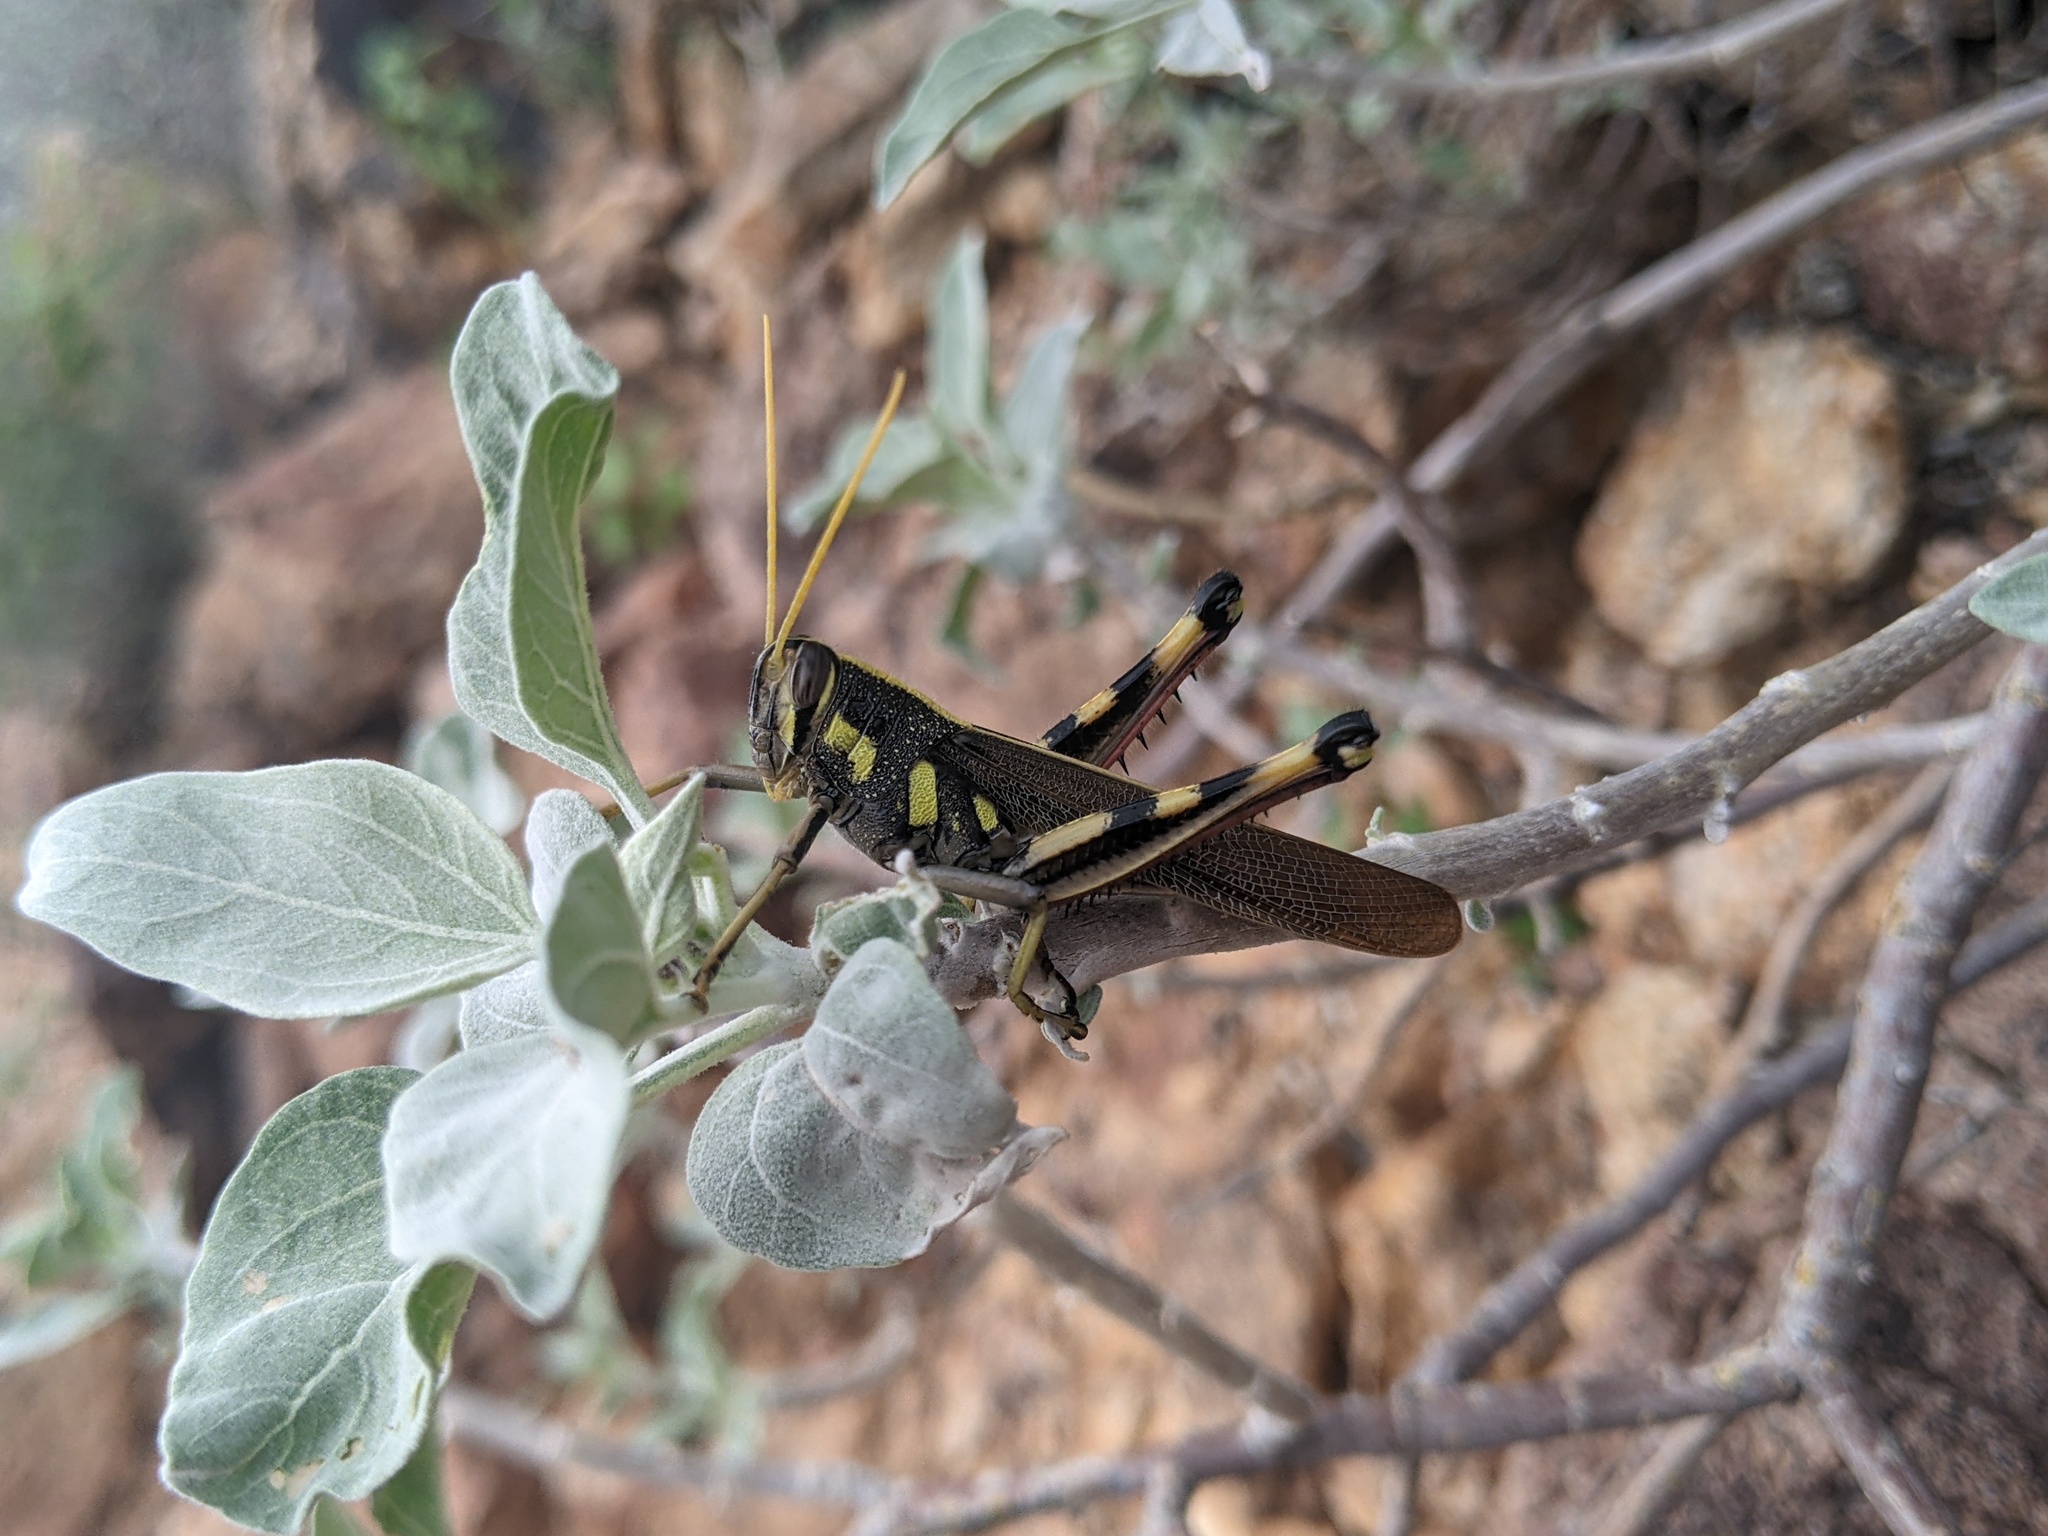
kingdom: Animalia
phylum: Arthropoda
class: Insecta
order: Orthoptera
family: Acrididae
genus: Schistocerca
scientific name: Schistocerca albolineata
